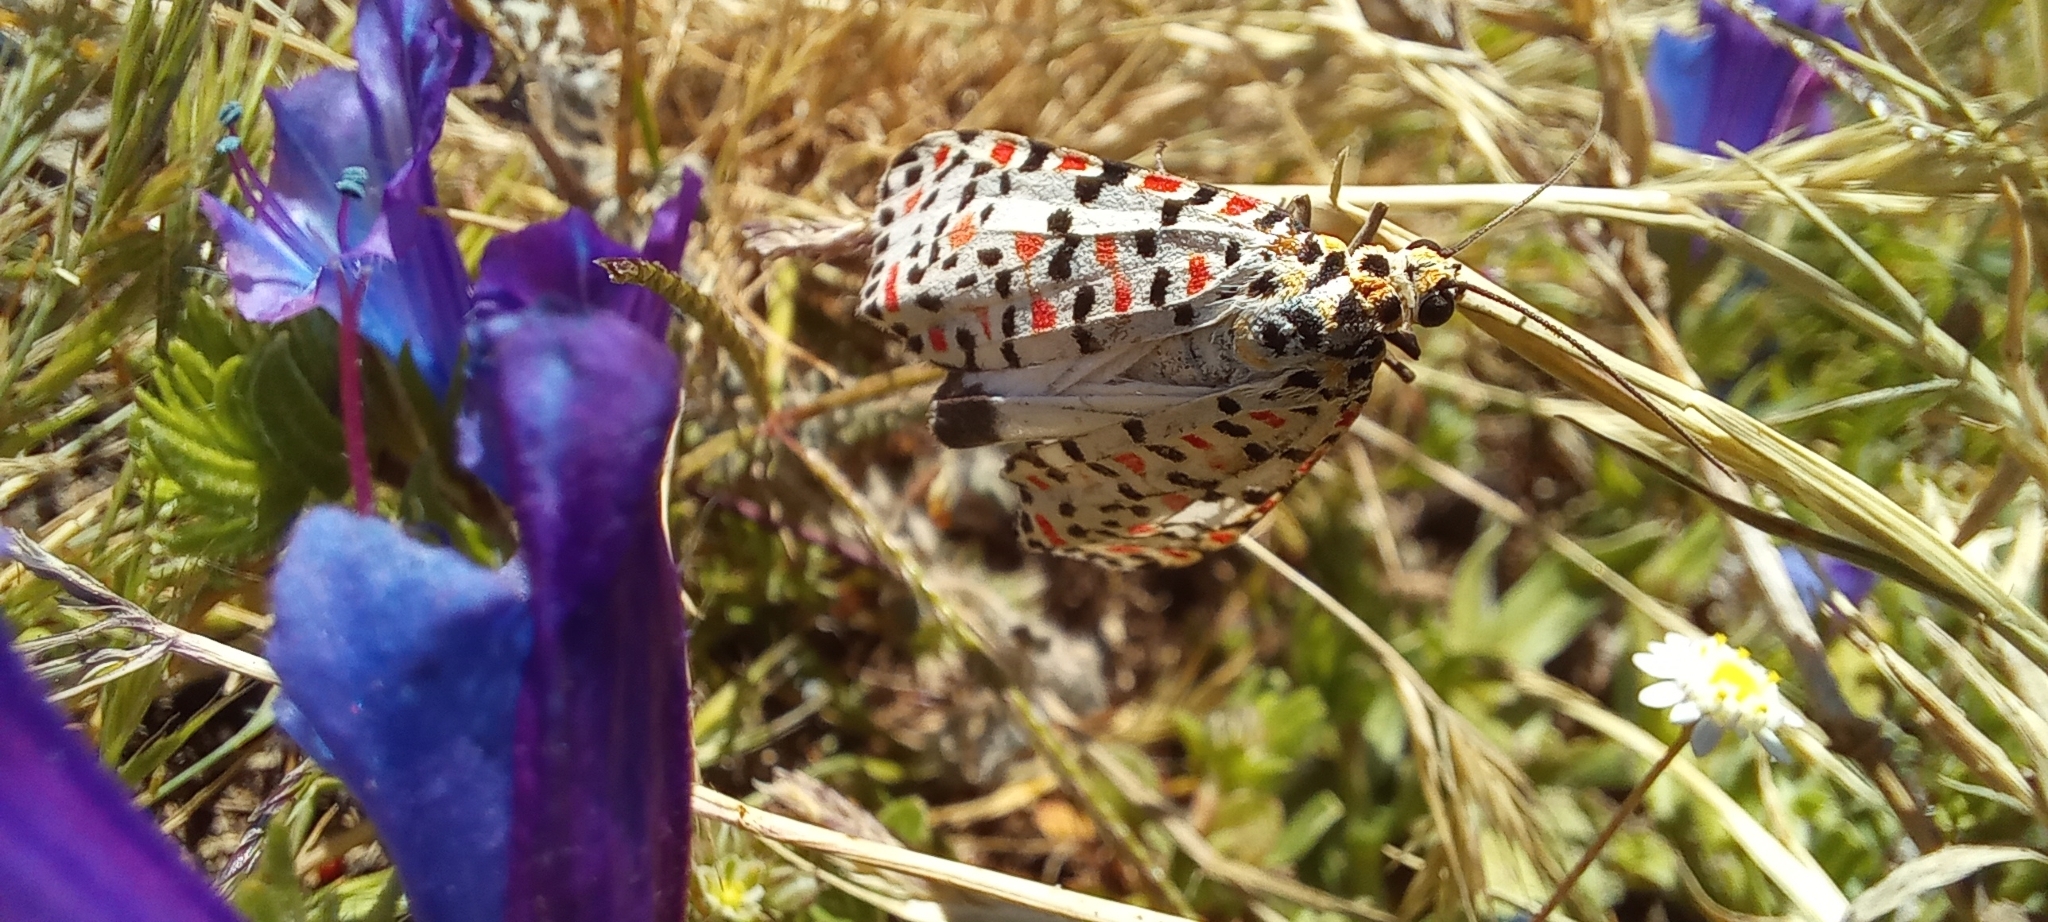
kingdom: Animalia
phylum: Arthropoda
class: Insecta
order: Lepidoptera
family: Erebidae
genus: Utetheisa
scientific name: Utetheisa pulchella
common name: Crimson speckled
